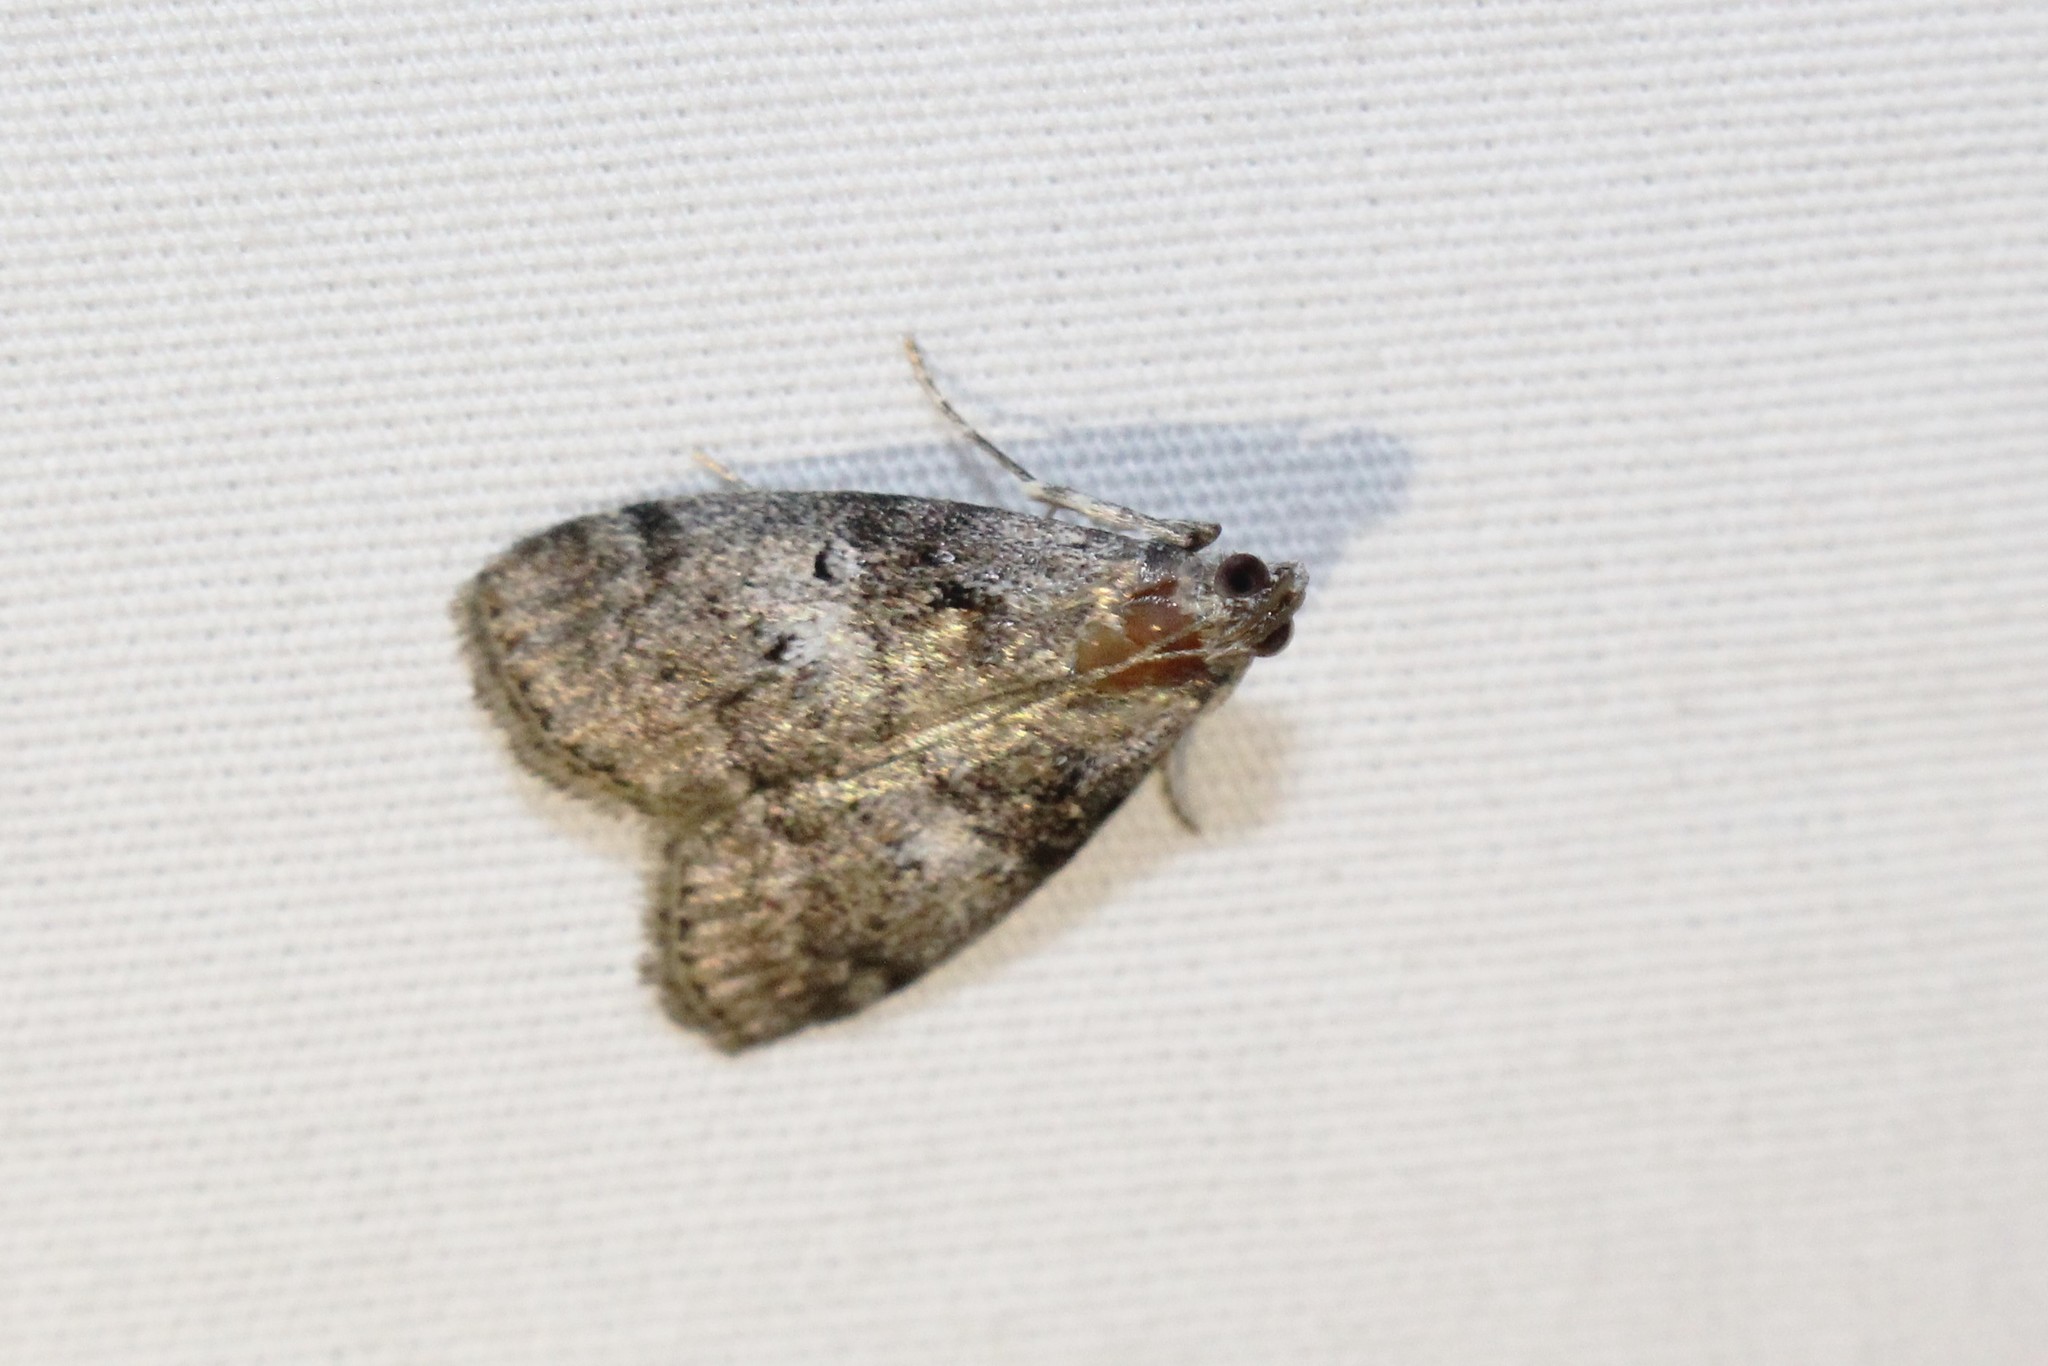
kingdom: Animalia
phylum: Arthropoda
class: Insecta
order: Lepidoptera
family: Pyralidae
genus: Pococera
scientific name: Pococera asperatella
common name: Maple webworm moth
